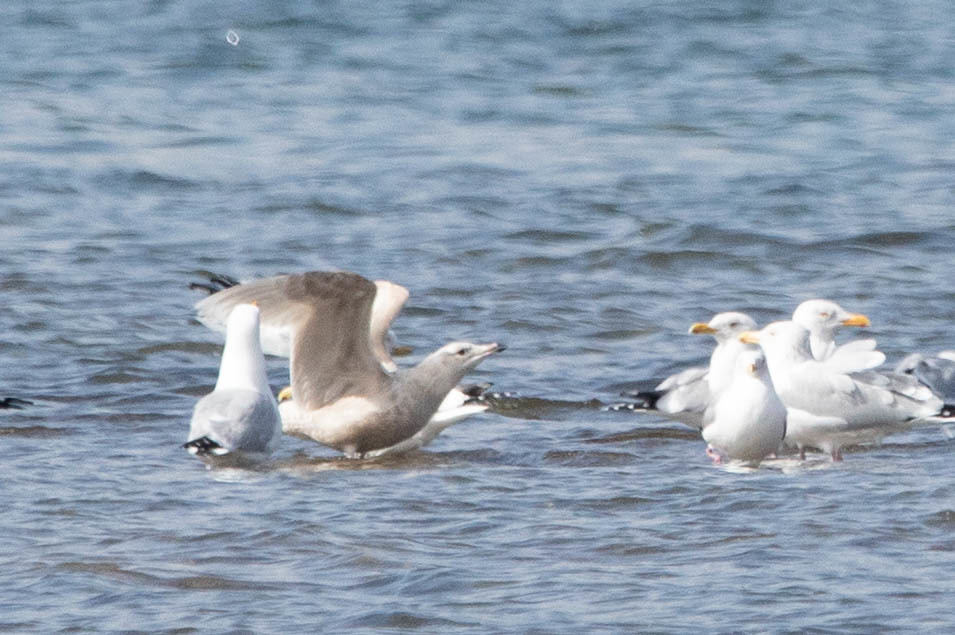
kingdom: Animalia
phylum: Chordata
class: Aves
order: Charadriiformes
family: Laridae
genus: Larus
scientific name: Larus hyperboreus
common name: Glaucous gull
